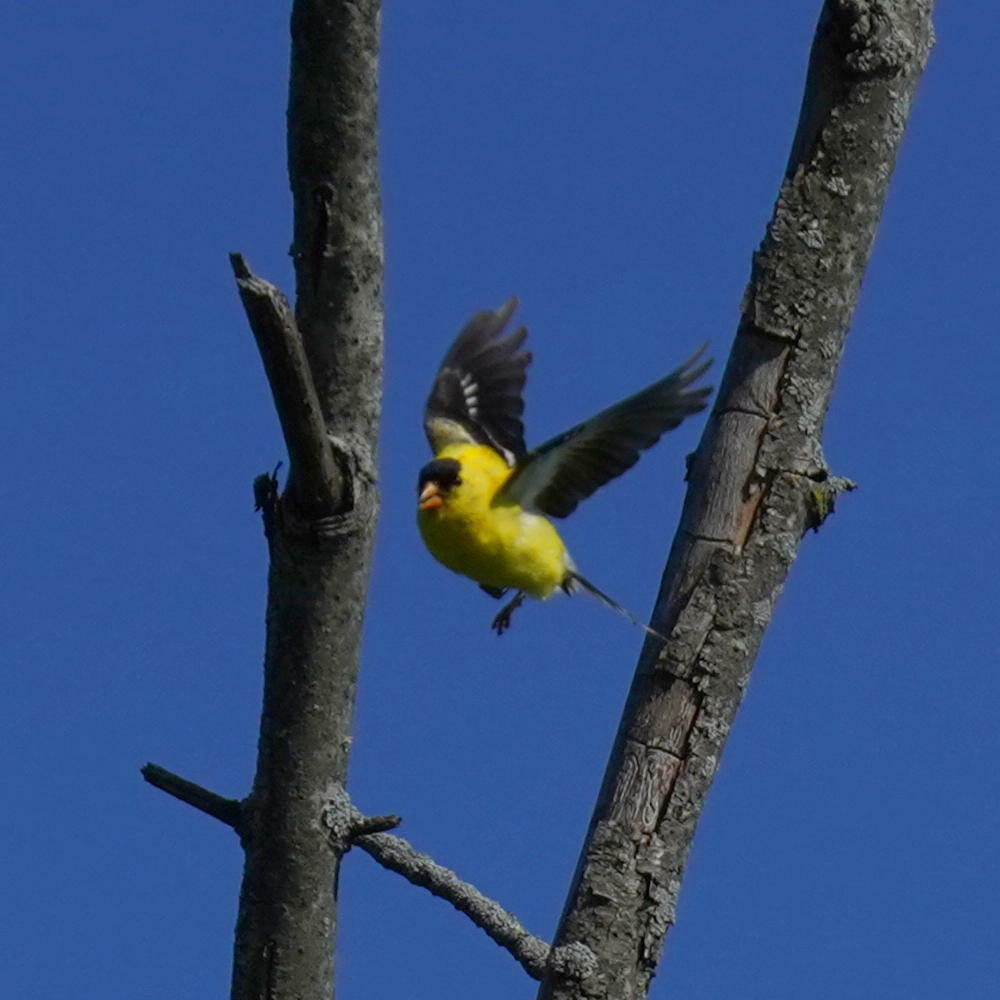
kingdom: Animalia
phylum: Chordata
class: Aves
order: Passeriformes
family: Fringillidae
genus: Spinus
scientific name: Spinus tristis
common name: American goldfinch
